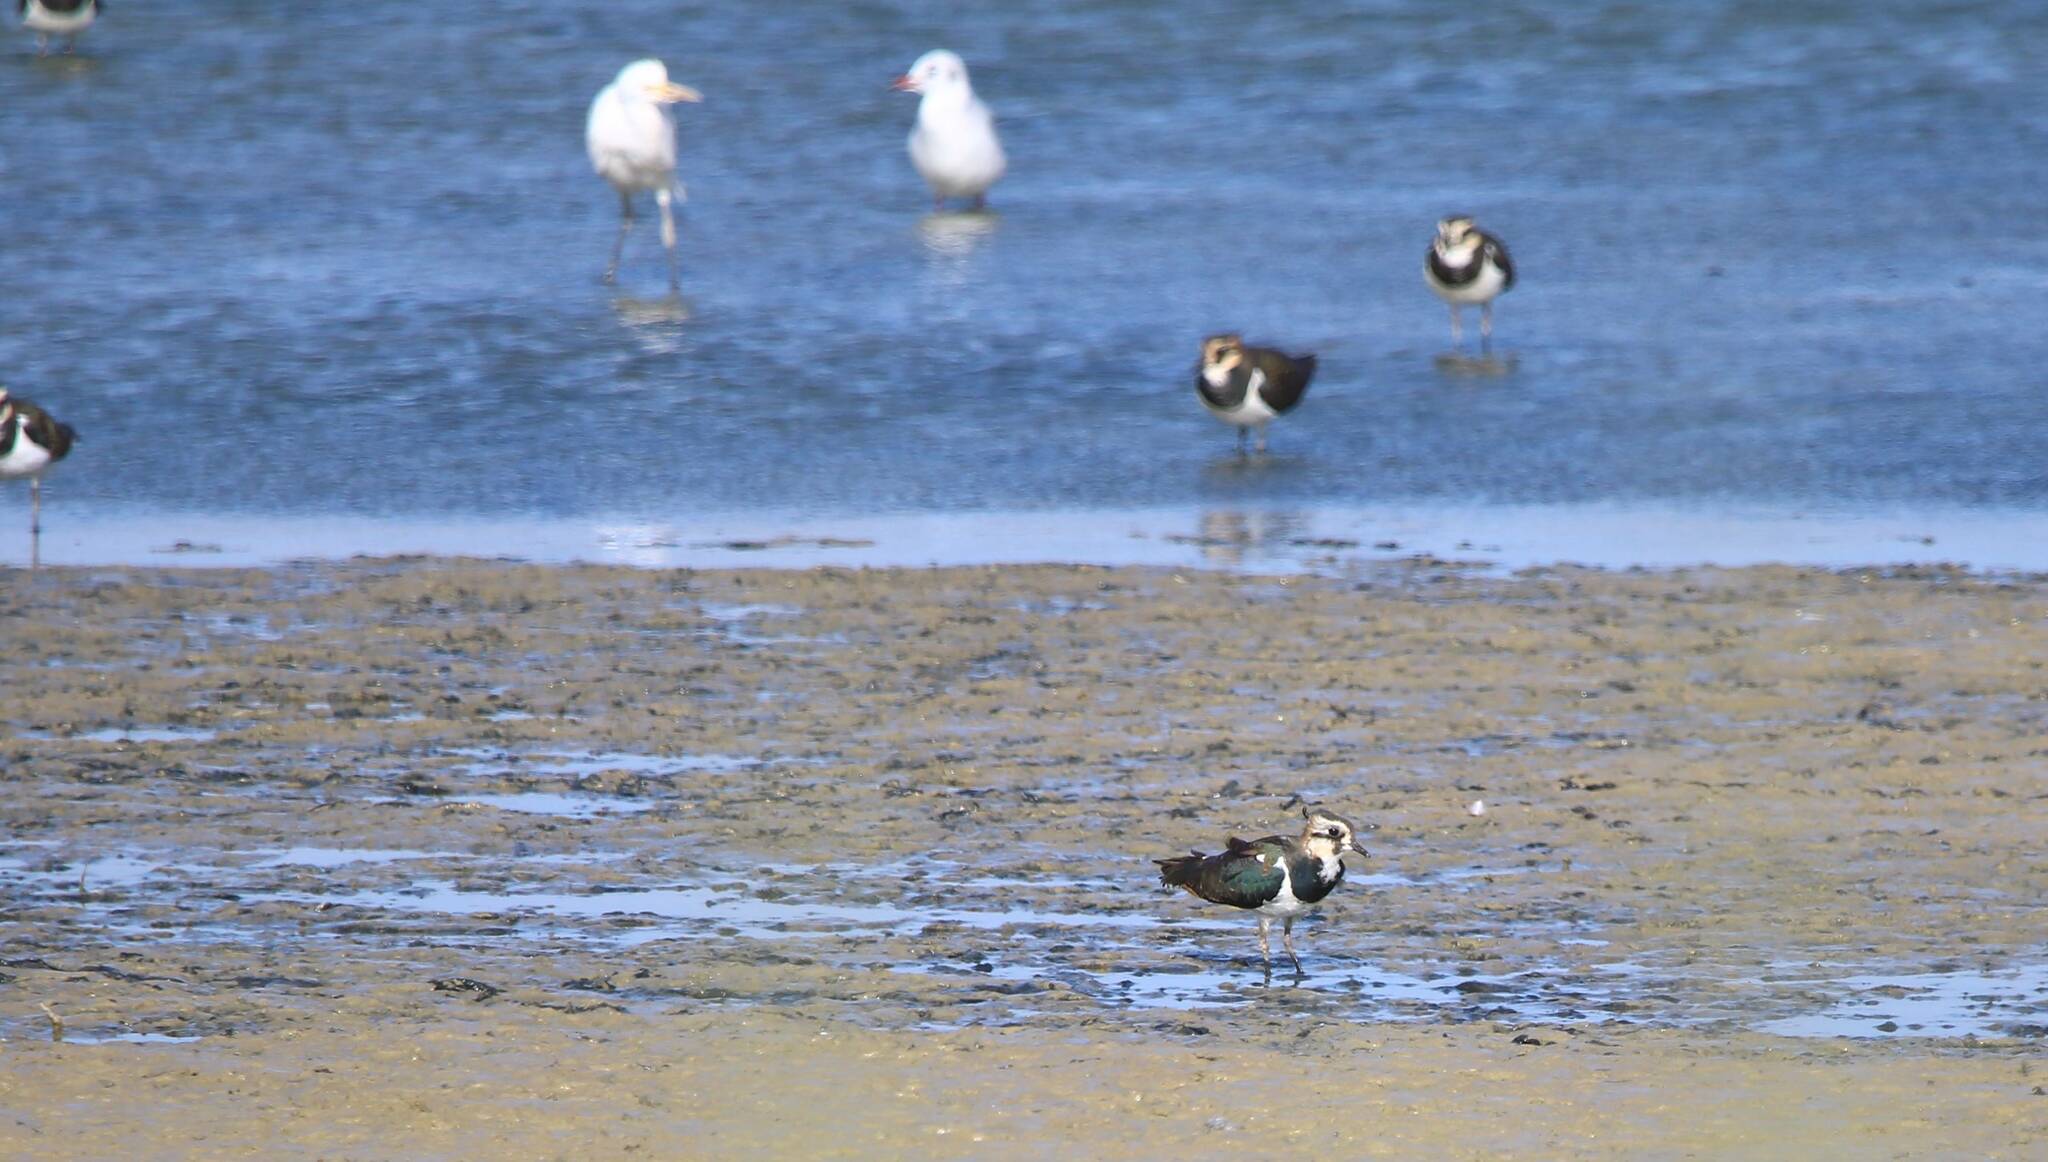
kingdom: Animalia
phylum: Chordata
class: Aves
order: Charadriiformes
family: Charadriidae
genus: Vanellus
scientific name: Vanellus vanellus
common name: Northern lapwing
